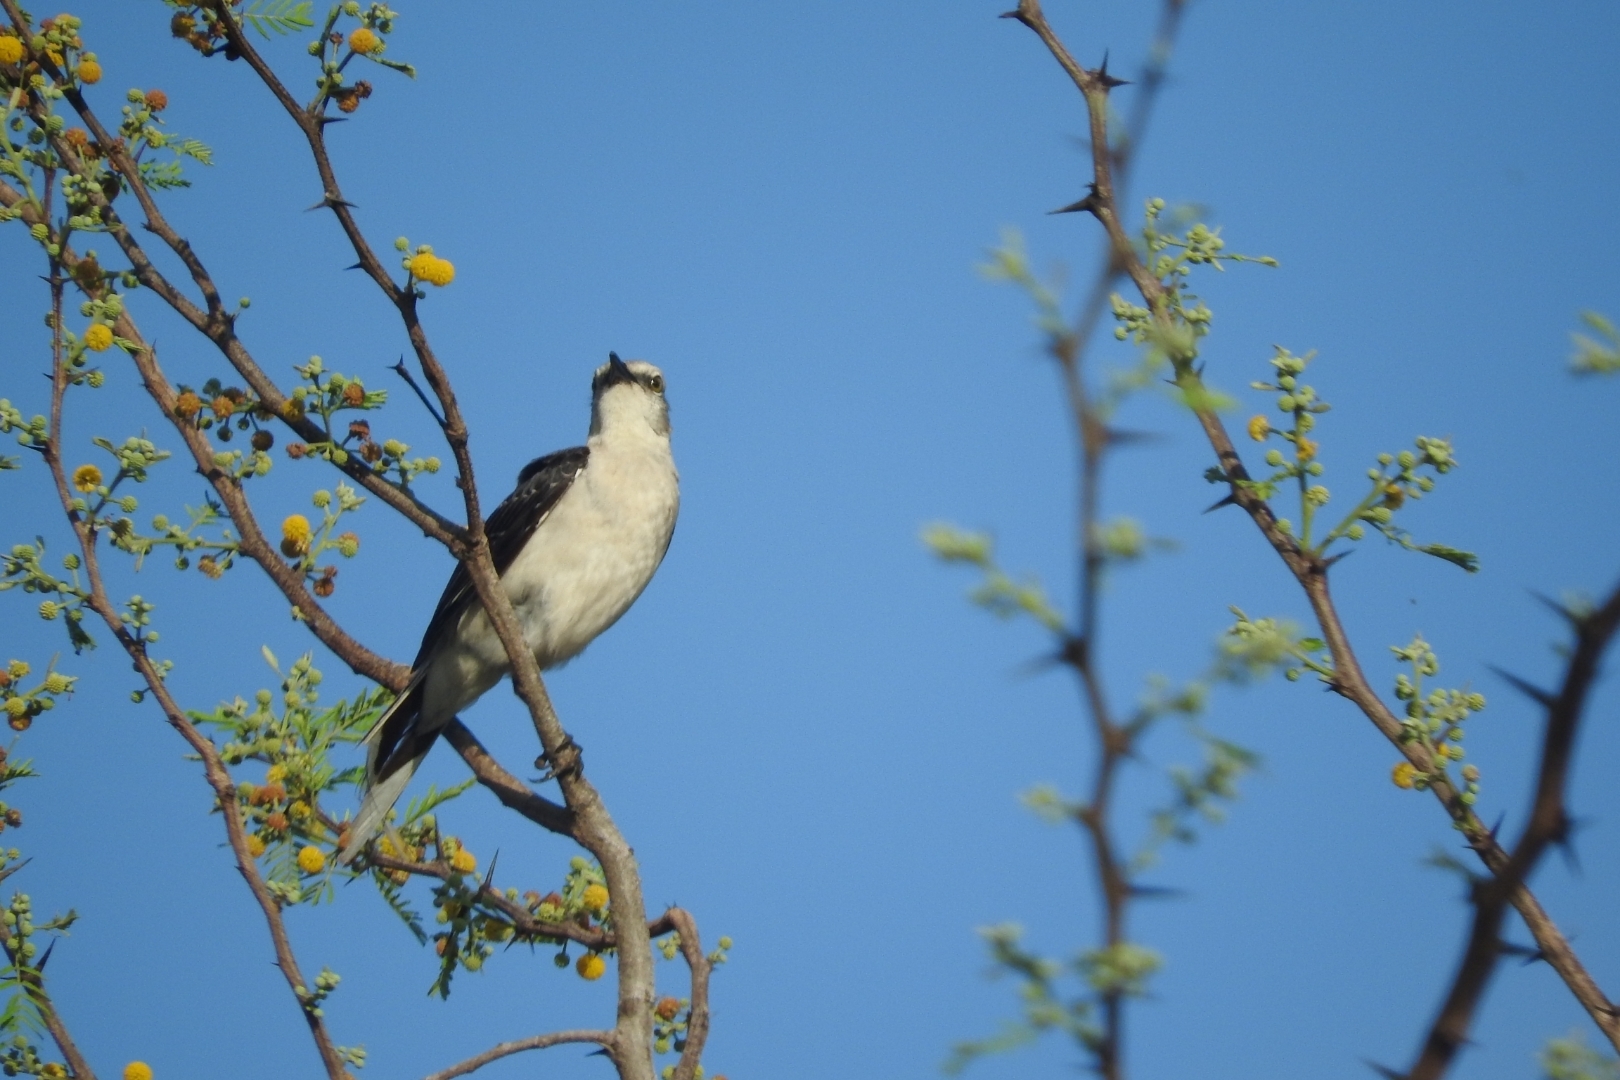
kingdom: Animalia
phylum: Chordata
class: Aves
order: Passeriformes
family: Mimidae
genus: Mimus
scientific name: Mimus gilvus
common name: Tropical mockingbird
